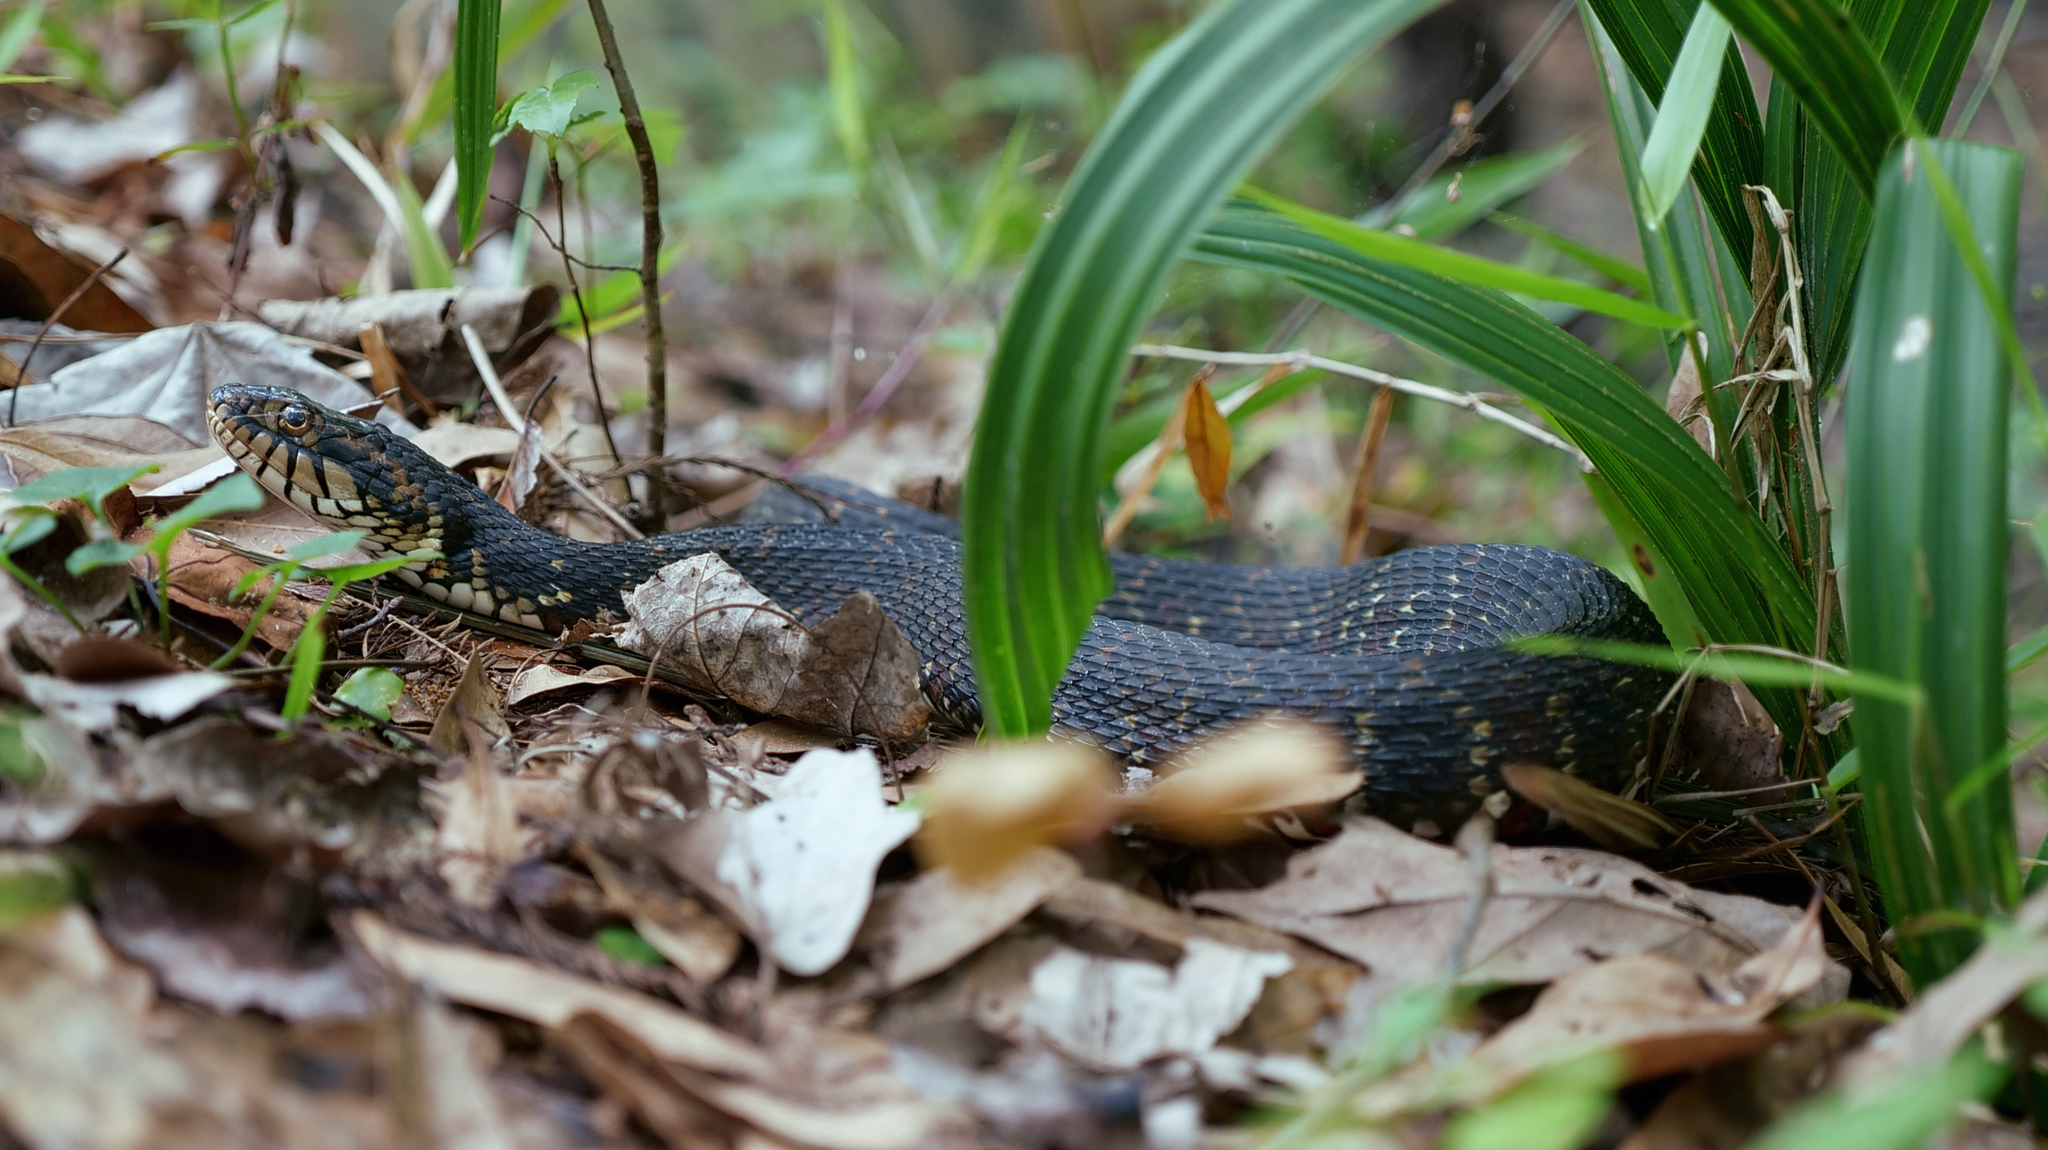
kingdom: Animalia
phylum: Chordata
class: Squamata
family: Colubridae
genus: Nerodia
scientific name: Nerodia fasciata
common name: Southern water snake
